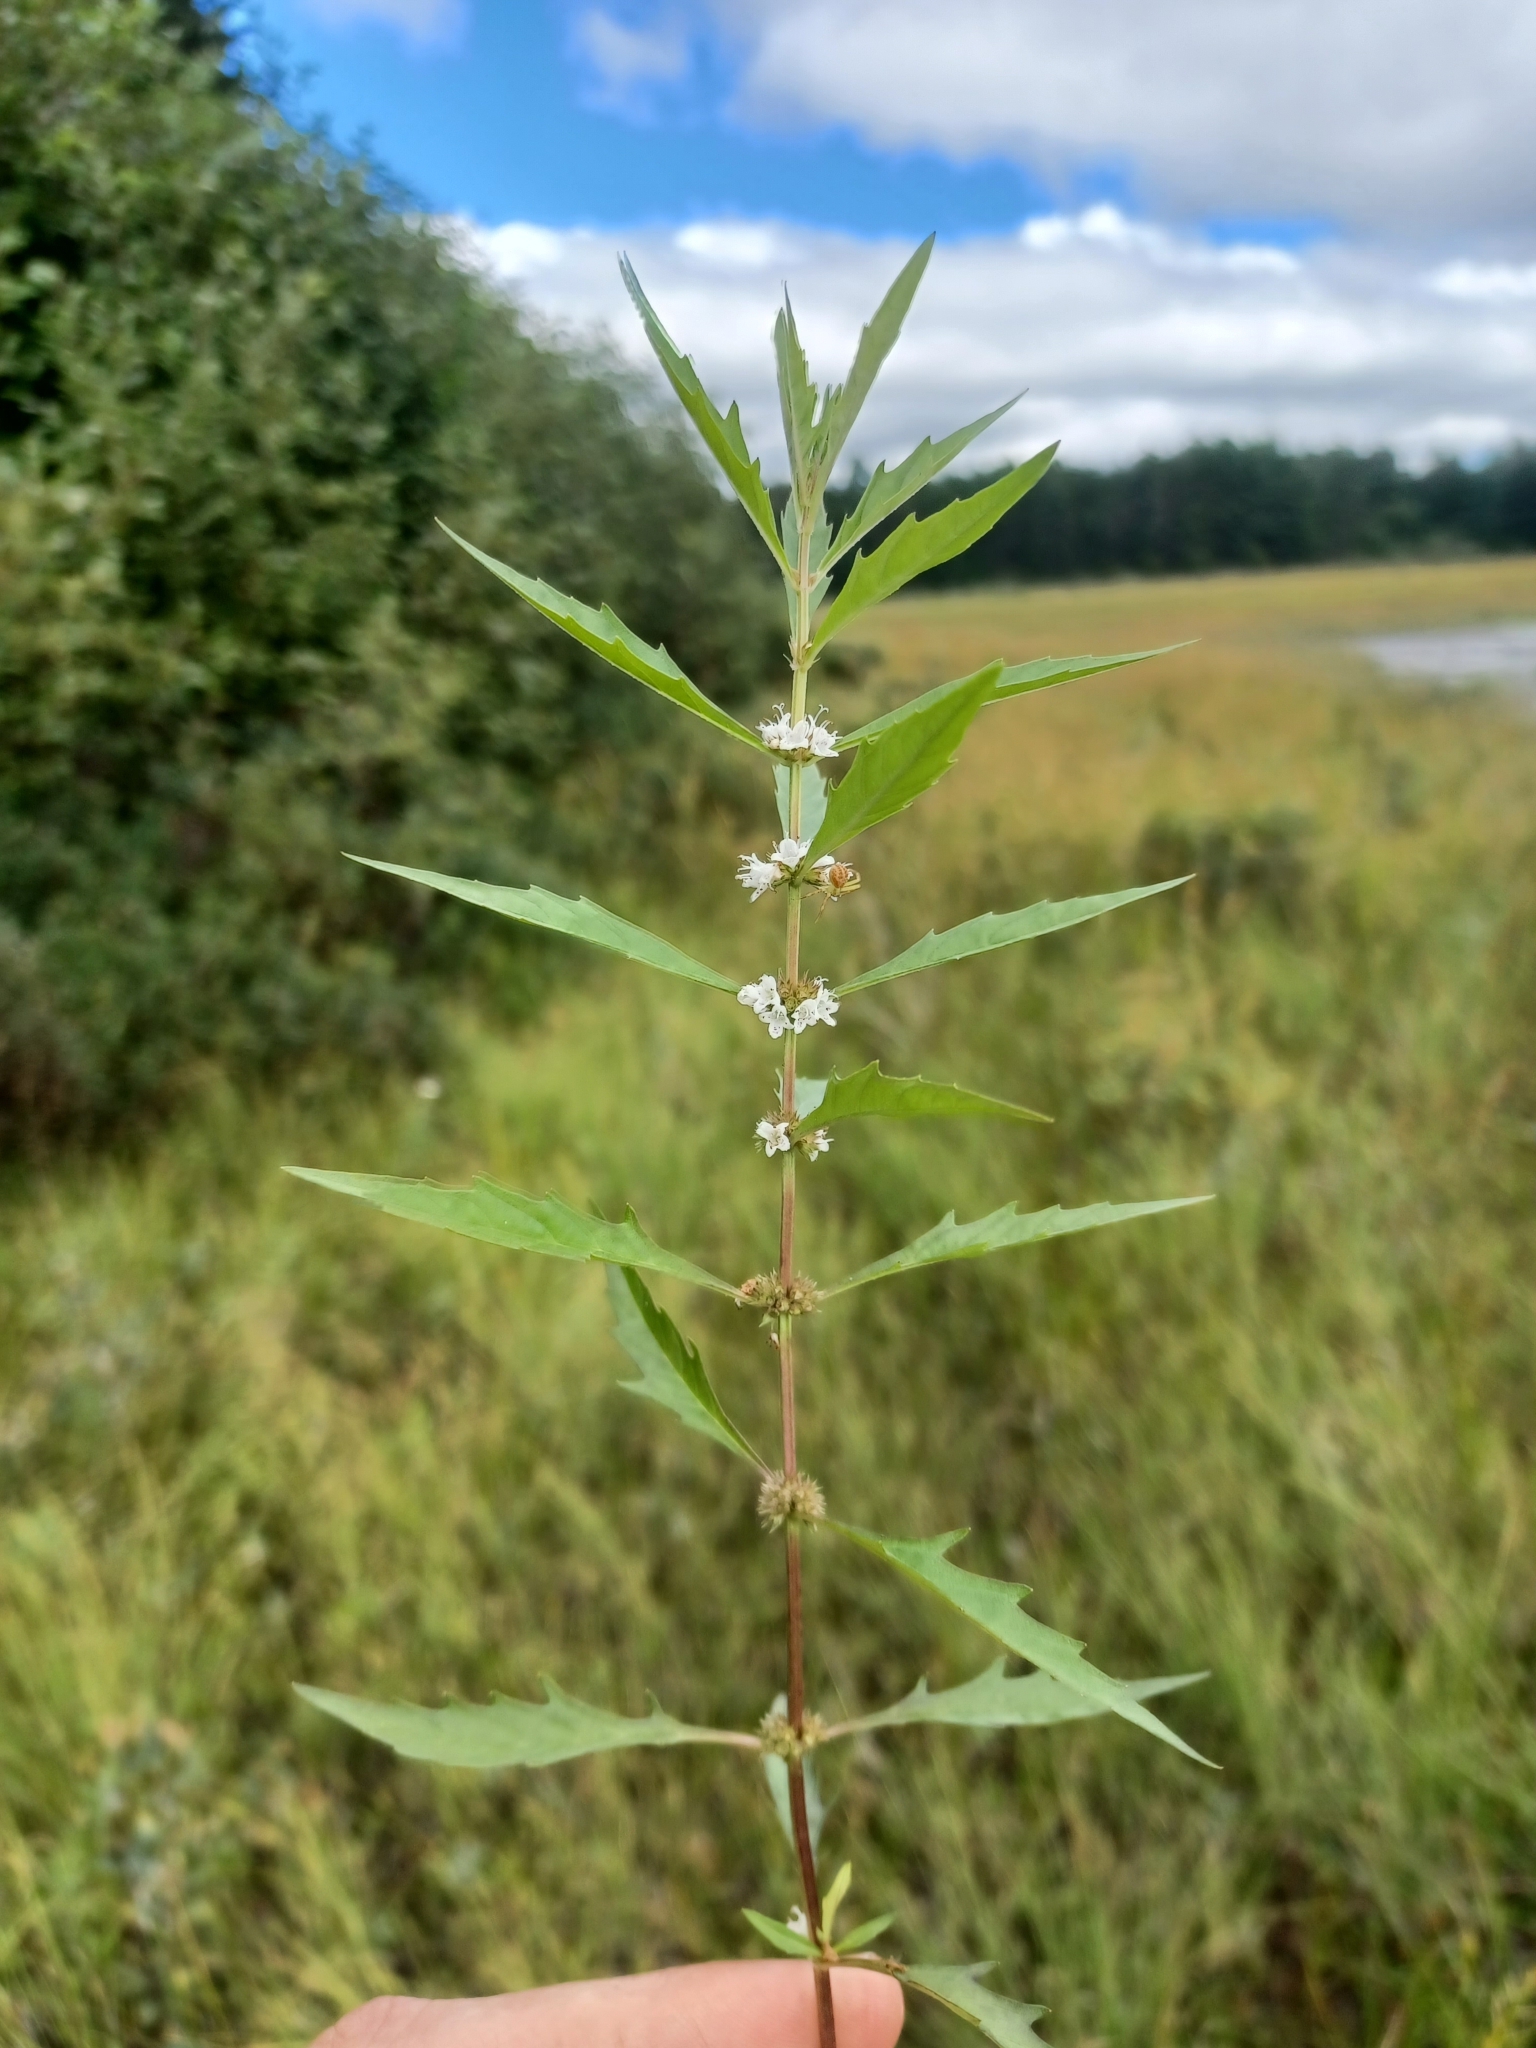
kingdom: Plantae
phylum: Tracheophyta
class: Magnoliopsida
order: Lamiales
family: Lamiaceae
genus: Lycopus
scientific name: Lycopus americanus
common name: American bugleweed
